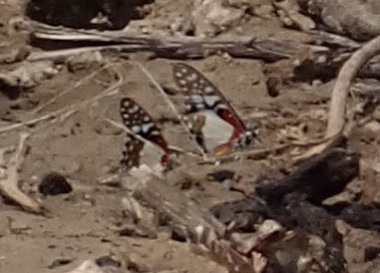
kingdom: Animalia
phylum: Arthropoda
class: Insecta
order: Lepidoptera
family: Papilionidae
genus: Graphium
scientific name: Graphium angolanus
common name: Angola white-lady swordtail
